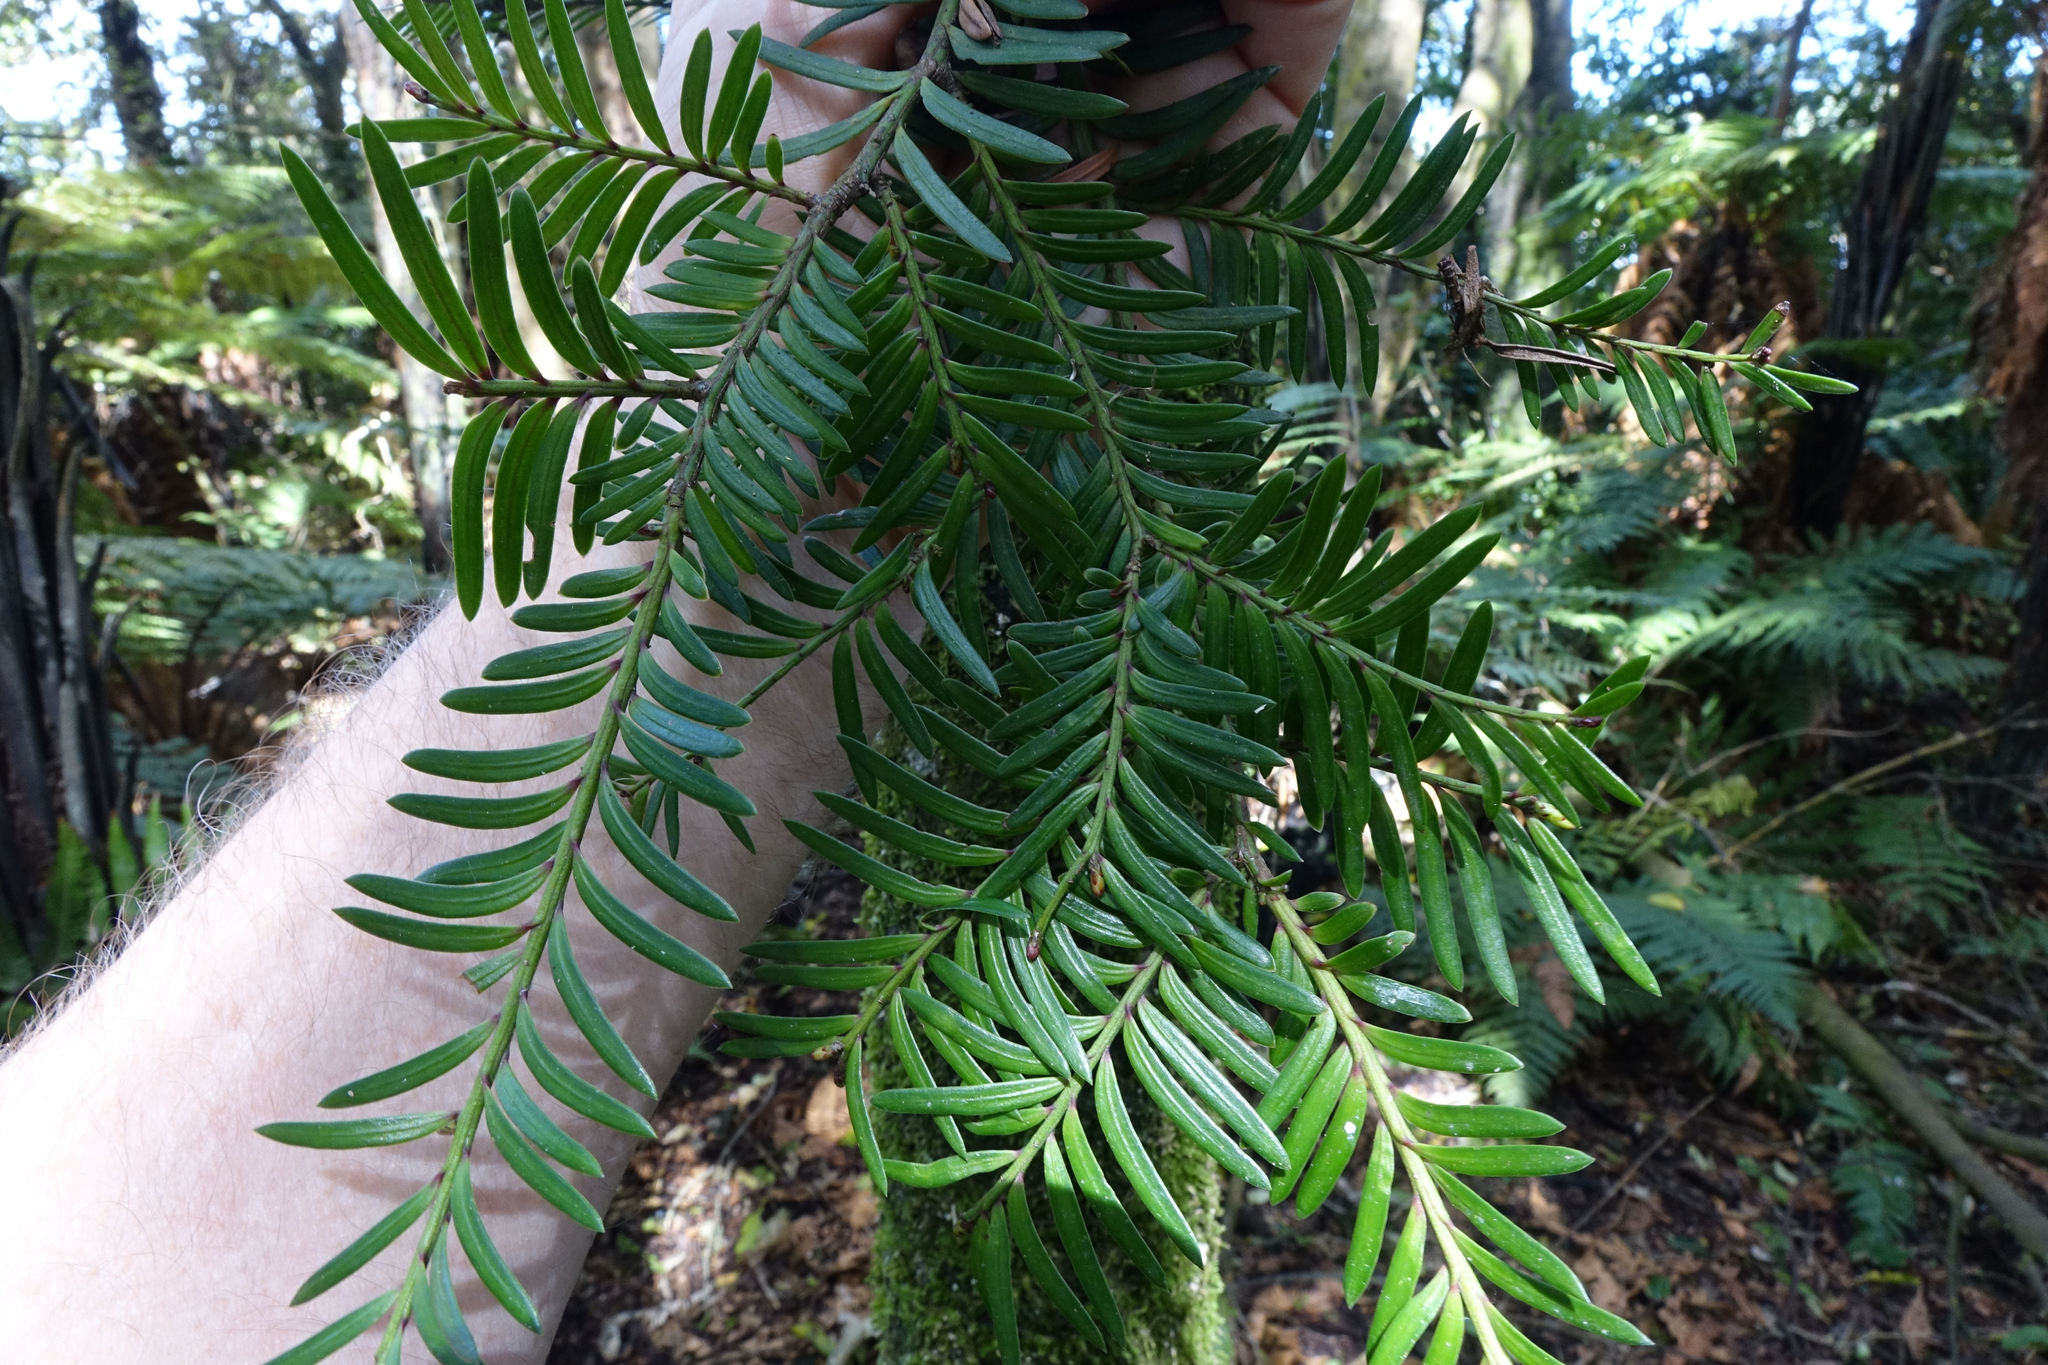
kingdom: Plantae
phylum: Tracheophyta
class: Pinopsida
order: Pinales
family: Podocarpaceae
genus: Prumnopitys
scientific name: Prumnopitys ferruginea
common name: Brown pine
